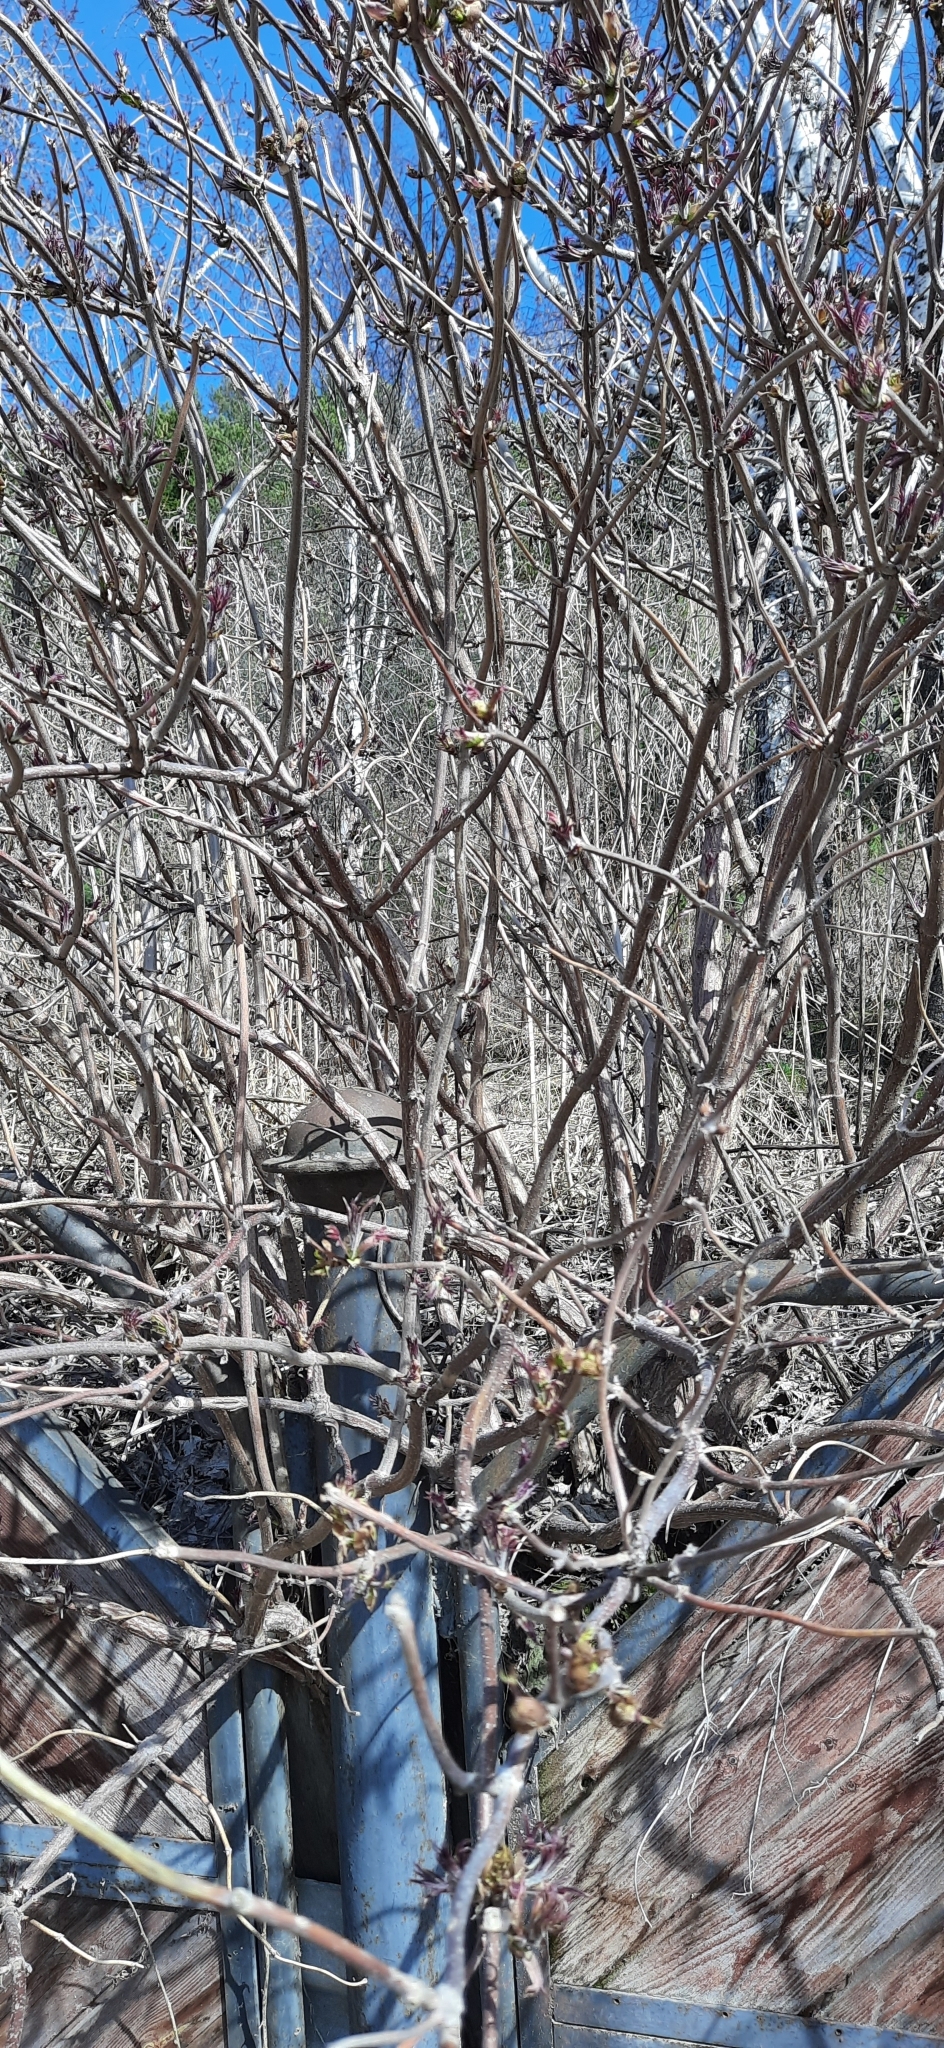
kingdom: Plantae
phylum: Tracheophyta
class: Magnoliopsida
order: Dipsacales
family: Viburnaceae
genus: Sambucus
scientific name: Sambucus sibirica
